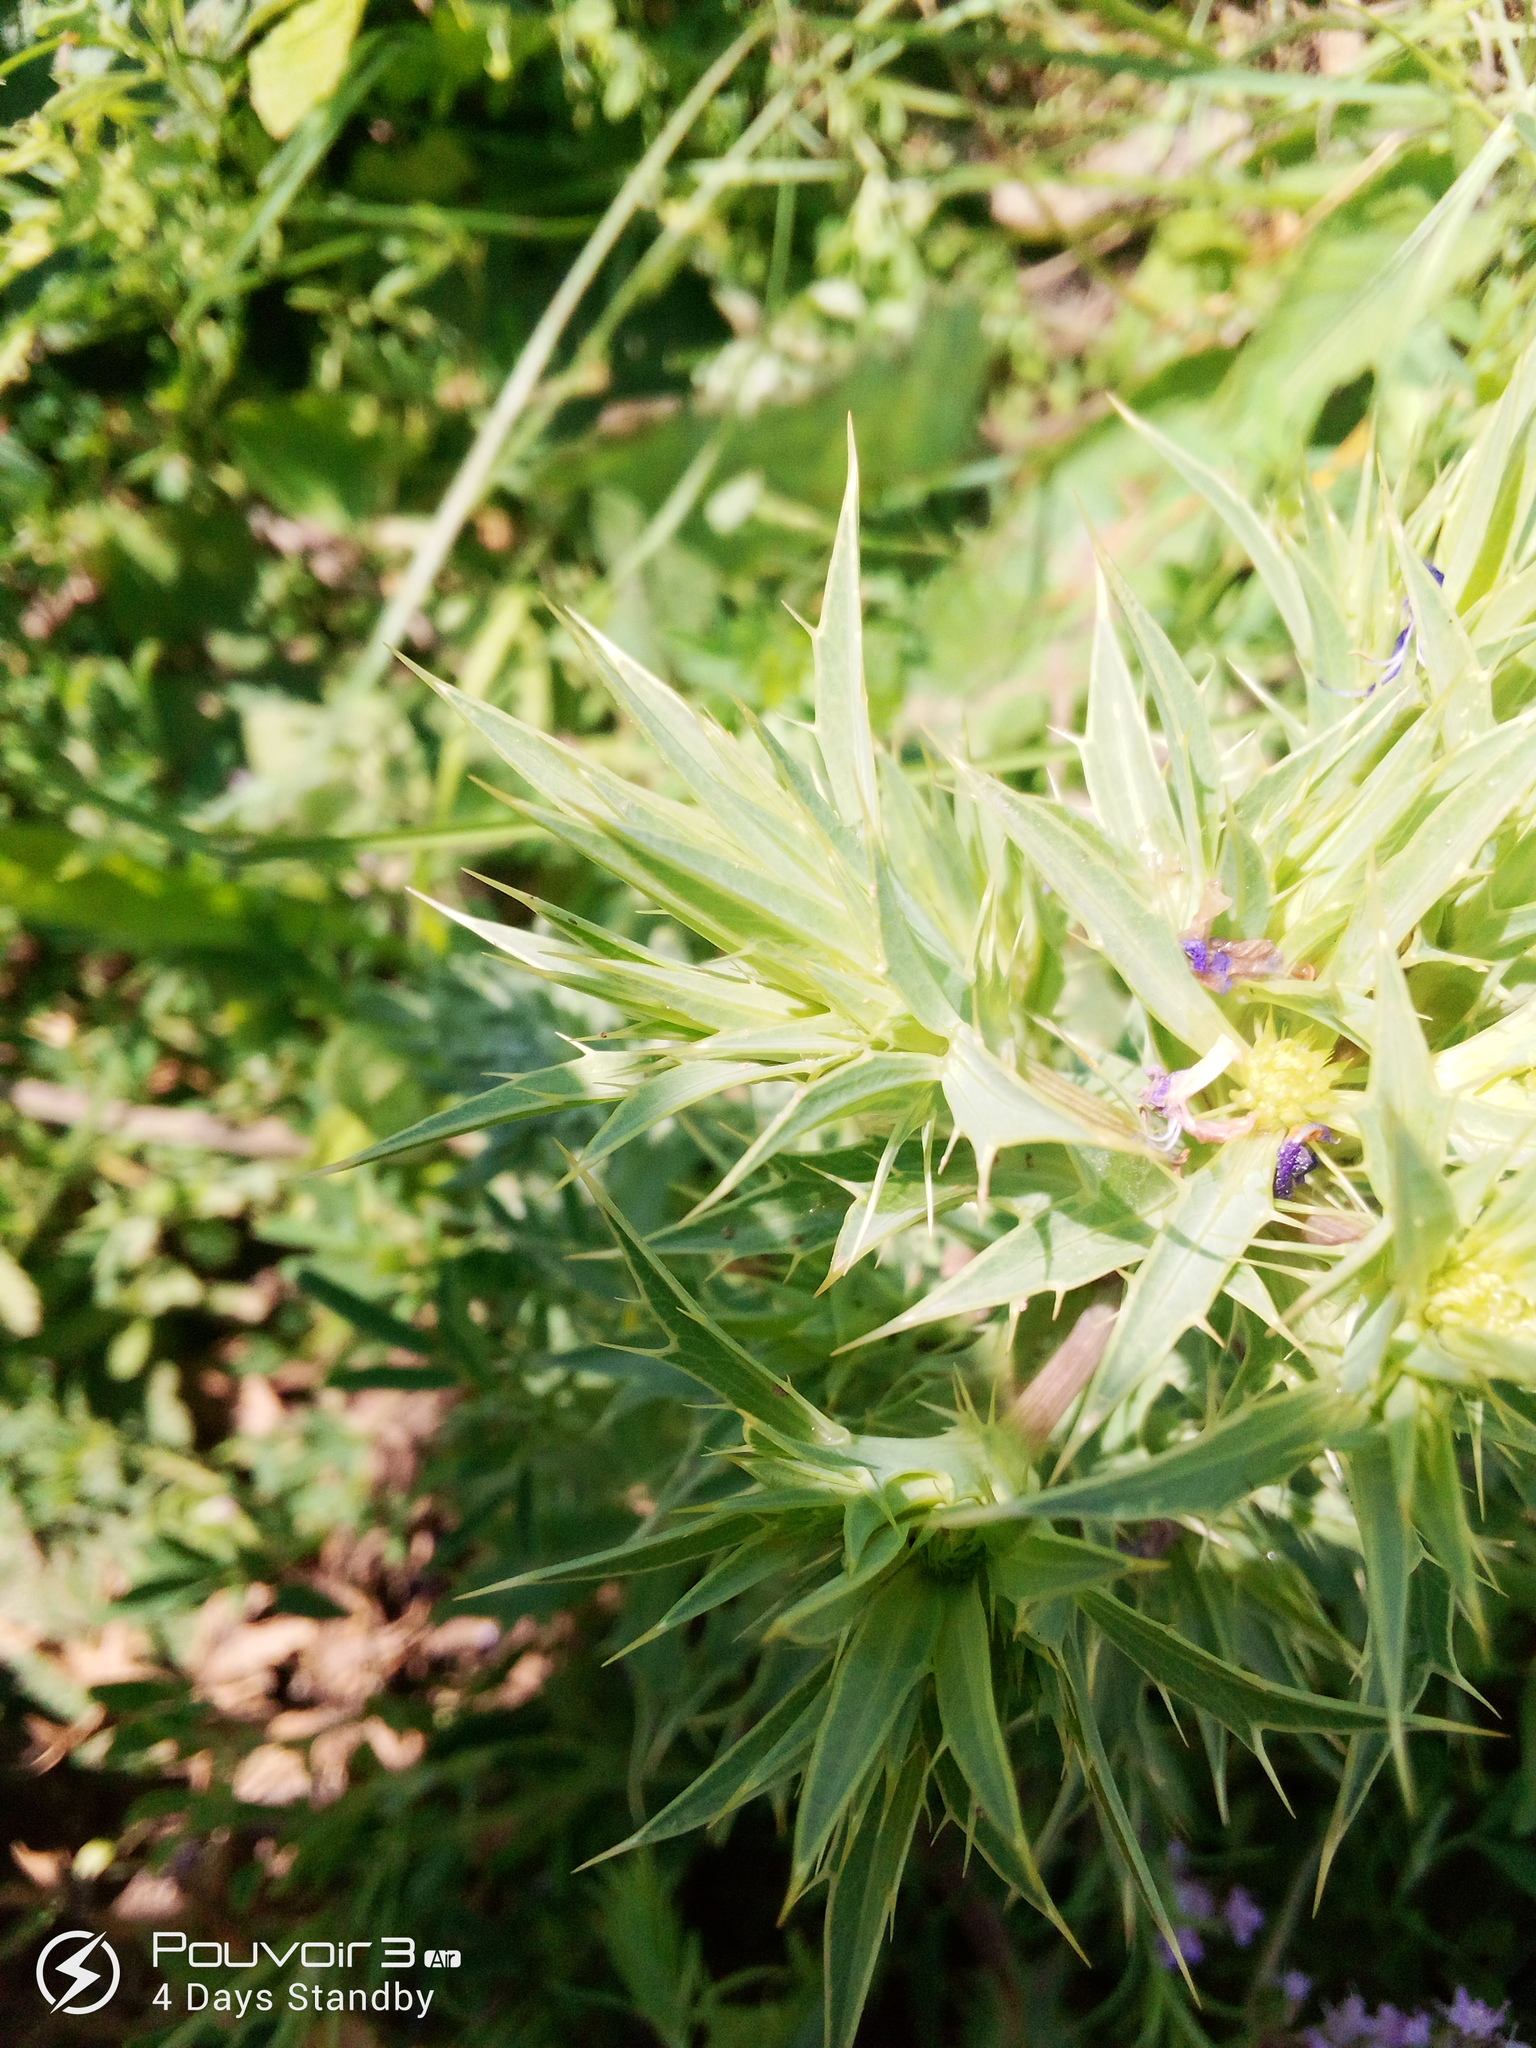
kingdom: Plantae
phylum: Tracheophyta
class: Magnoliopsida
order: Apiales
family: Apiaceae
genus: Eryngium
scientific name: Eryngium campestre
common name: Field eryngo
